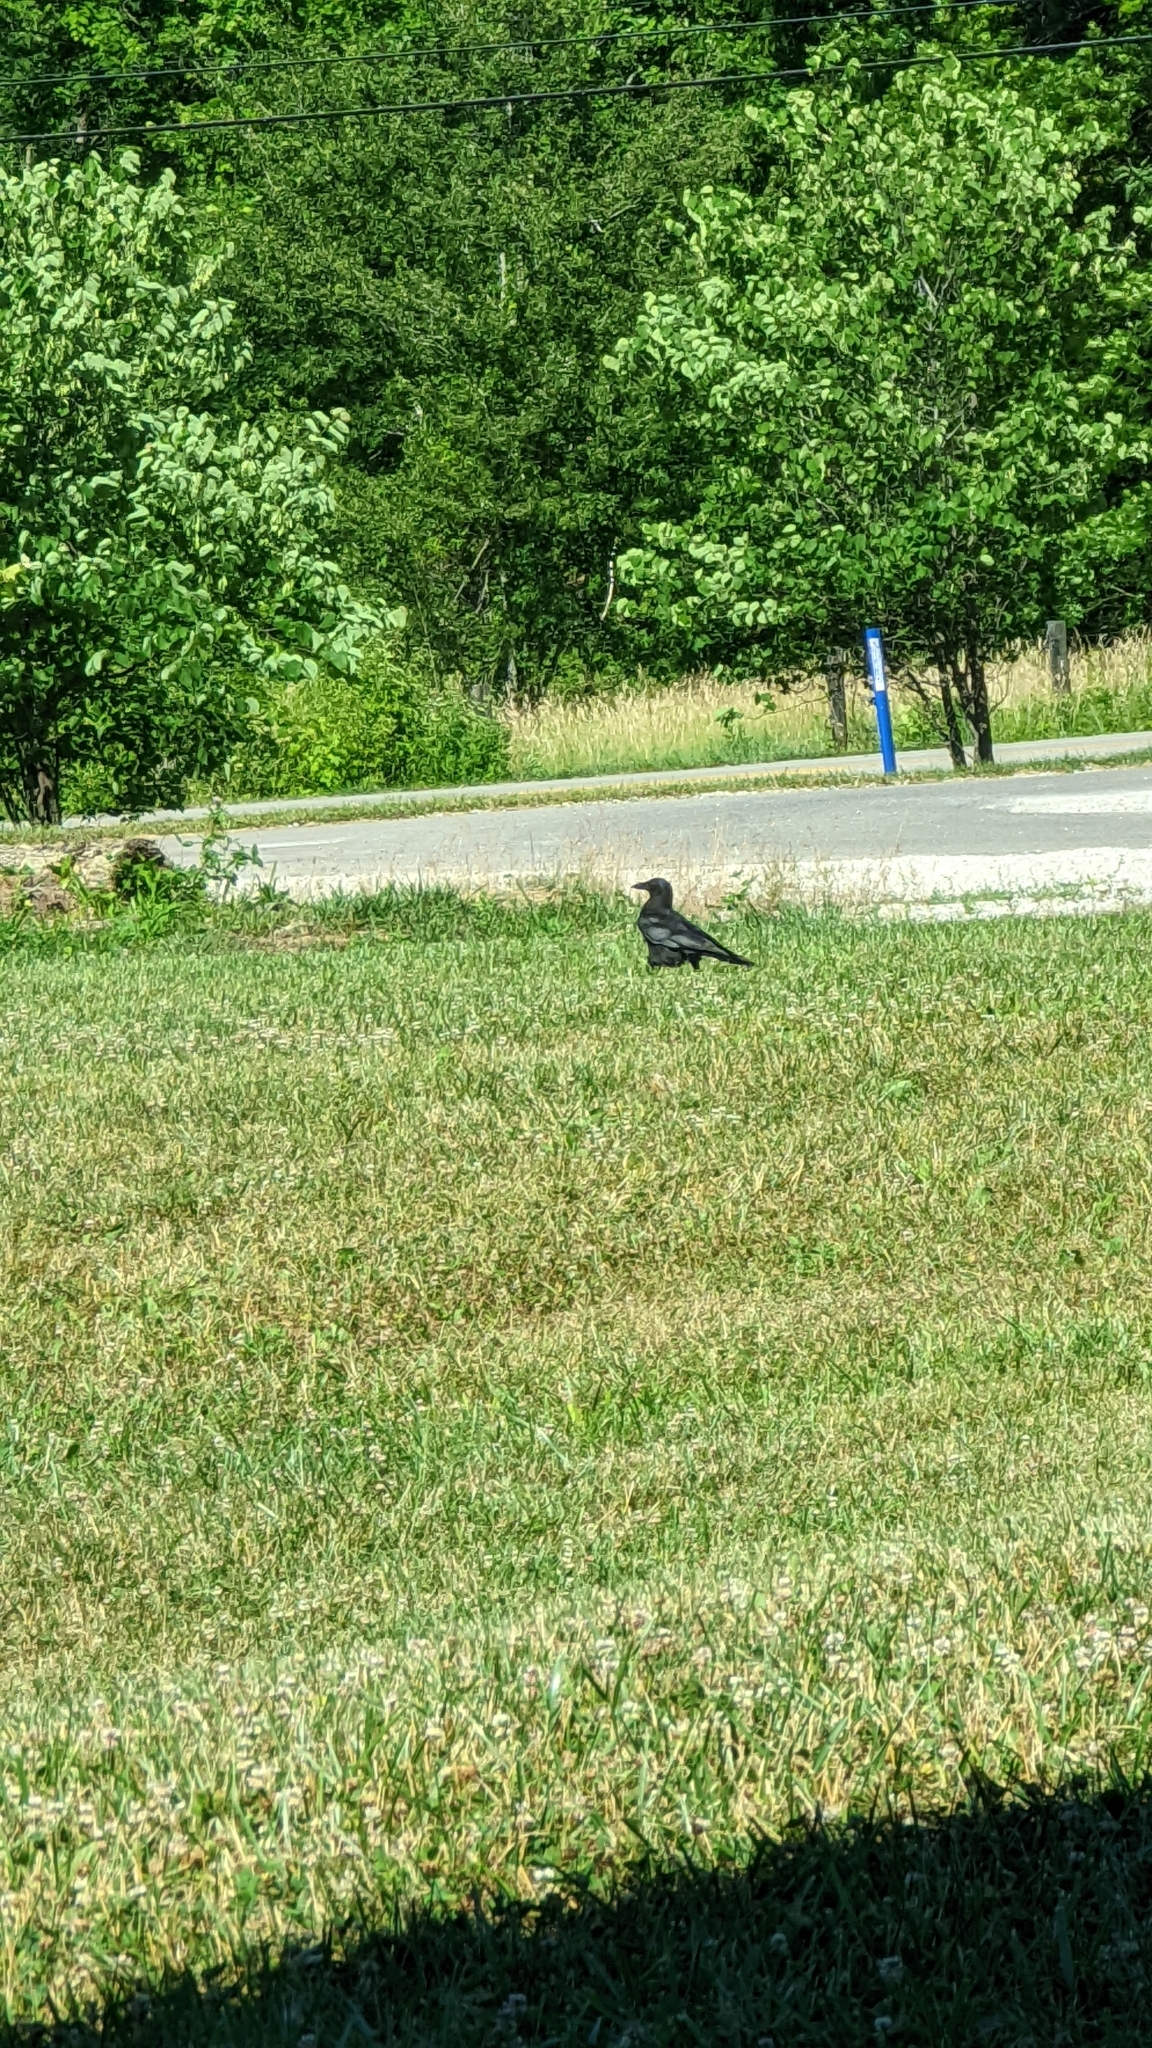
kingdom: Animalia
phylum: Chordata
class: Aves
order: Passeriformes
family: Corvidae
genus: Corvus
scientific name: Corvus brachyrhynchos
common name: American crow
